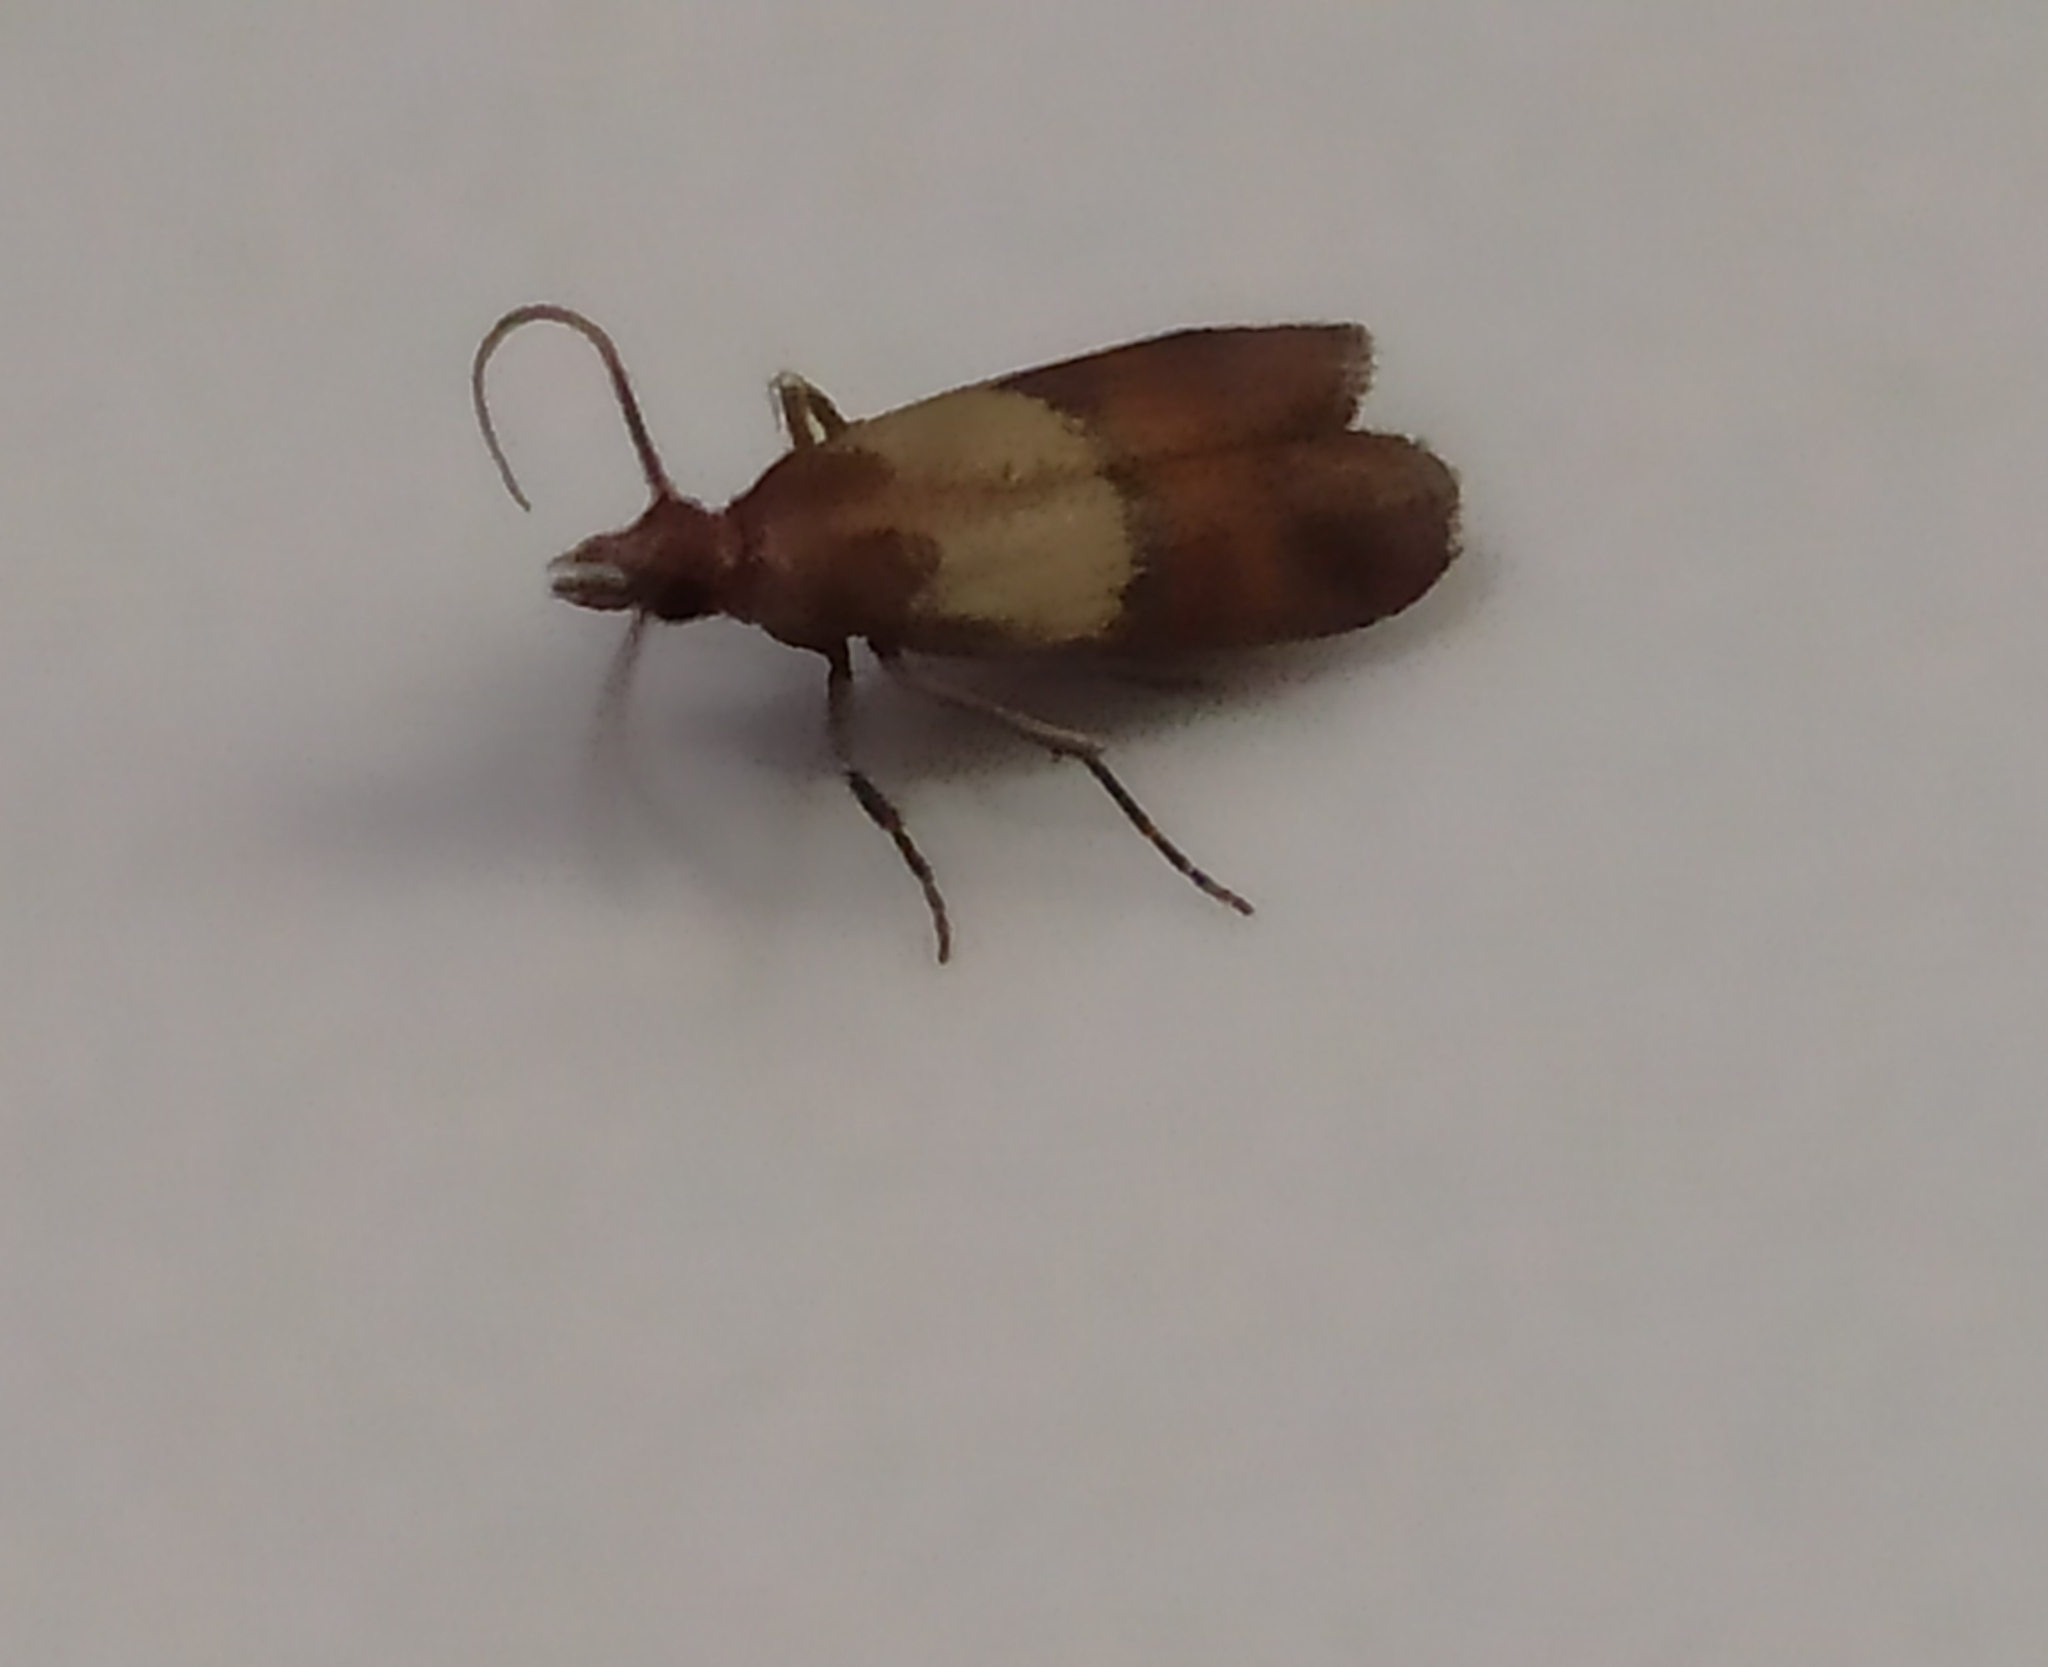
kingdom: Animalia
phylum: Arthropoda
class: Insecta
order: Lepidoptera
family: Pyralidae
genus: Plodia
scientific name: Plodia interpunctella
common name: Indian meal moth
